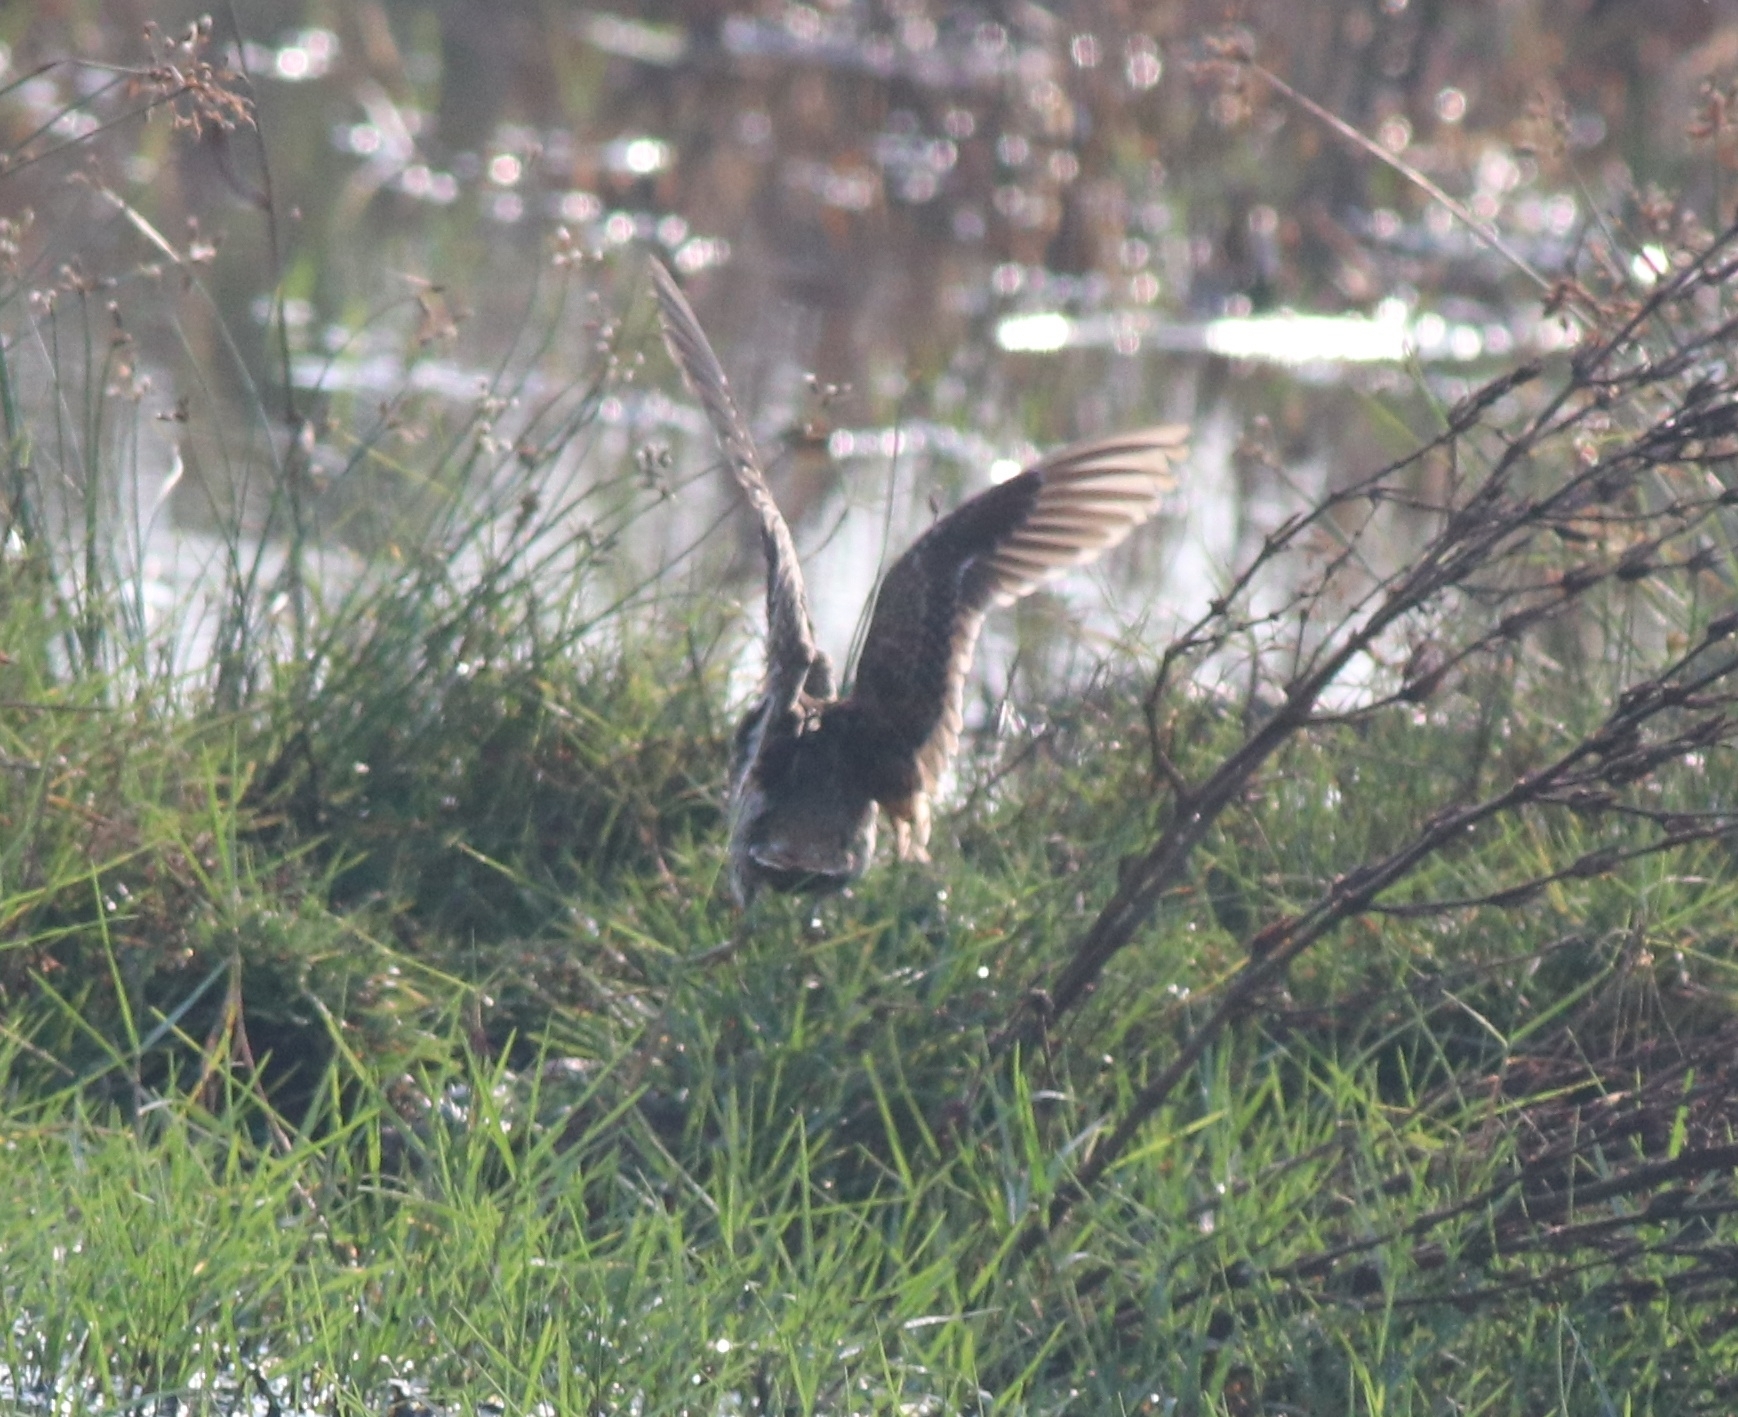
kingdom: Animalia
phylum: Chordata
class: Aves
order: Charadriiformes
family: Scolopacidae
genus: Gallinago
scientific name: Gallinago stenura
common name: Pin-tailed snipe
